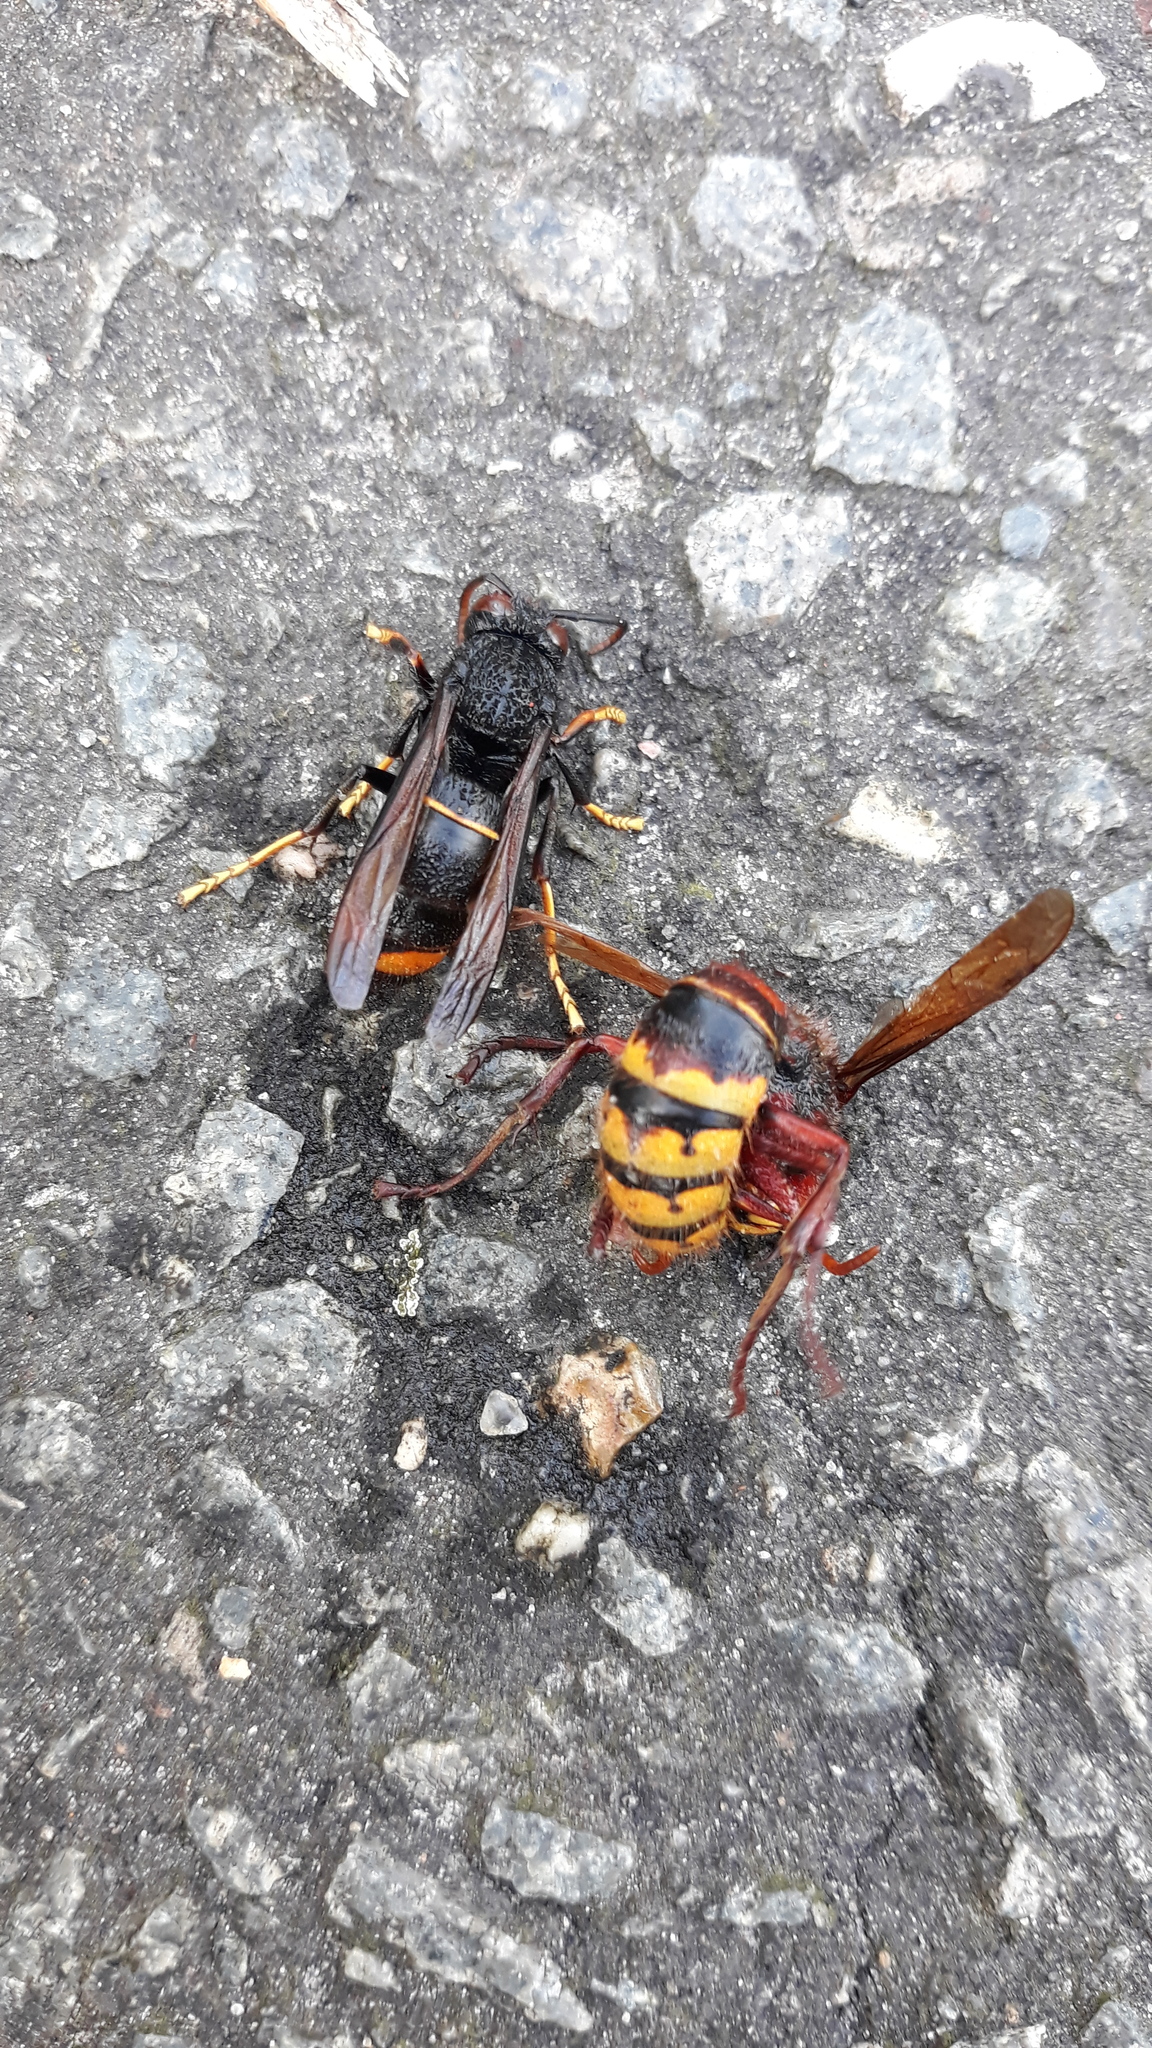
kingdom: Animalia
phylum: Arthropoda
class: Insecta
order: Hymenoptera
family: Vespidae
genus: Vespa
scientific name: Vespa velutina
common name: Asian hornet
